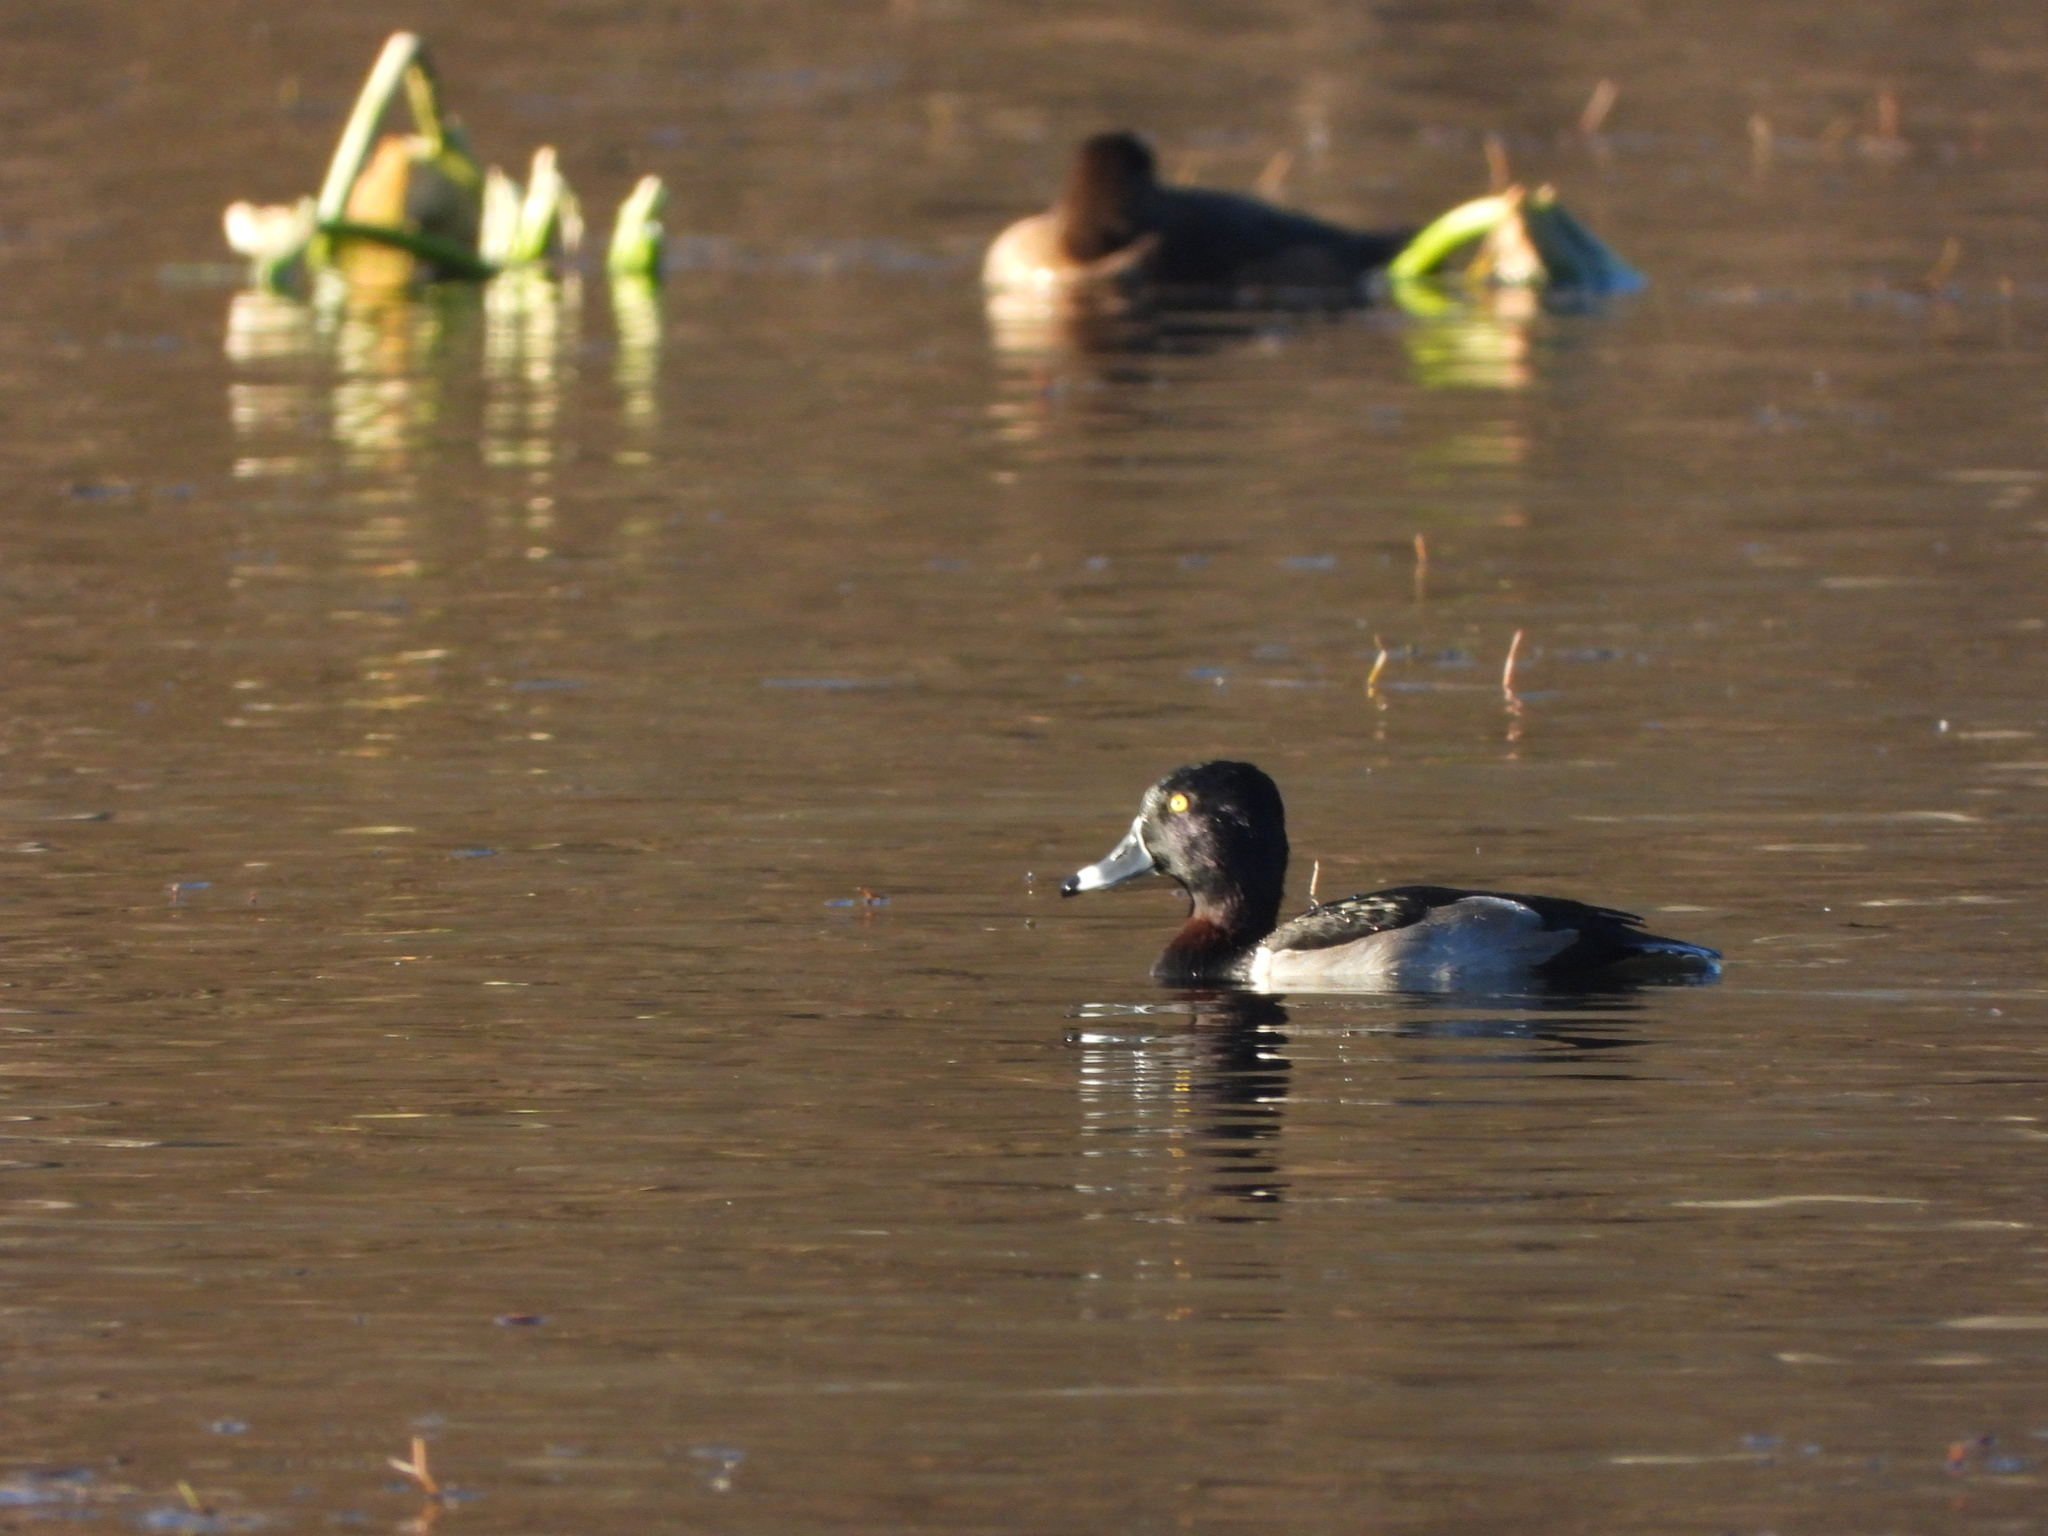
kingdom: Animalia
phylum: Chordata
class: Aves
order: Anseriformes
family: Anatidae
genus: Aythya
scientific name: Aythya collaris
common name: Ring-necked duck
